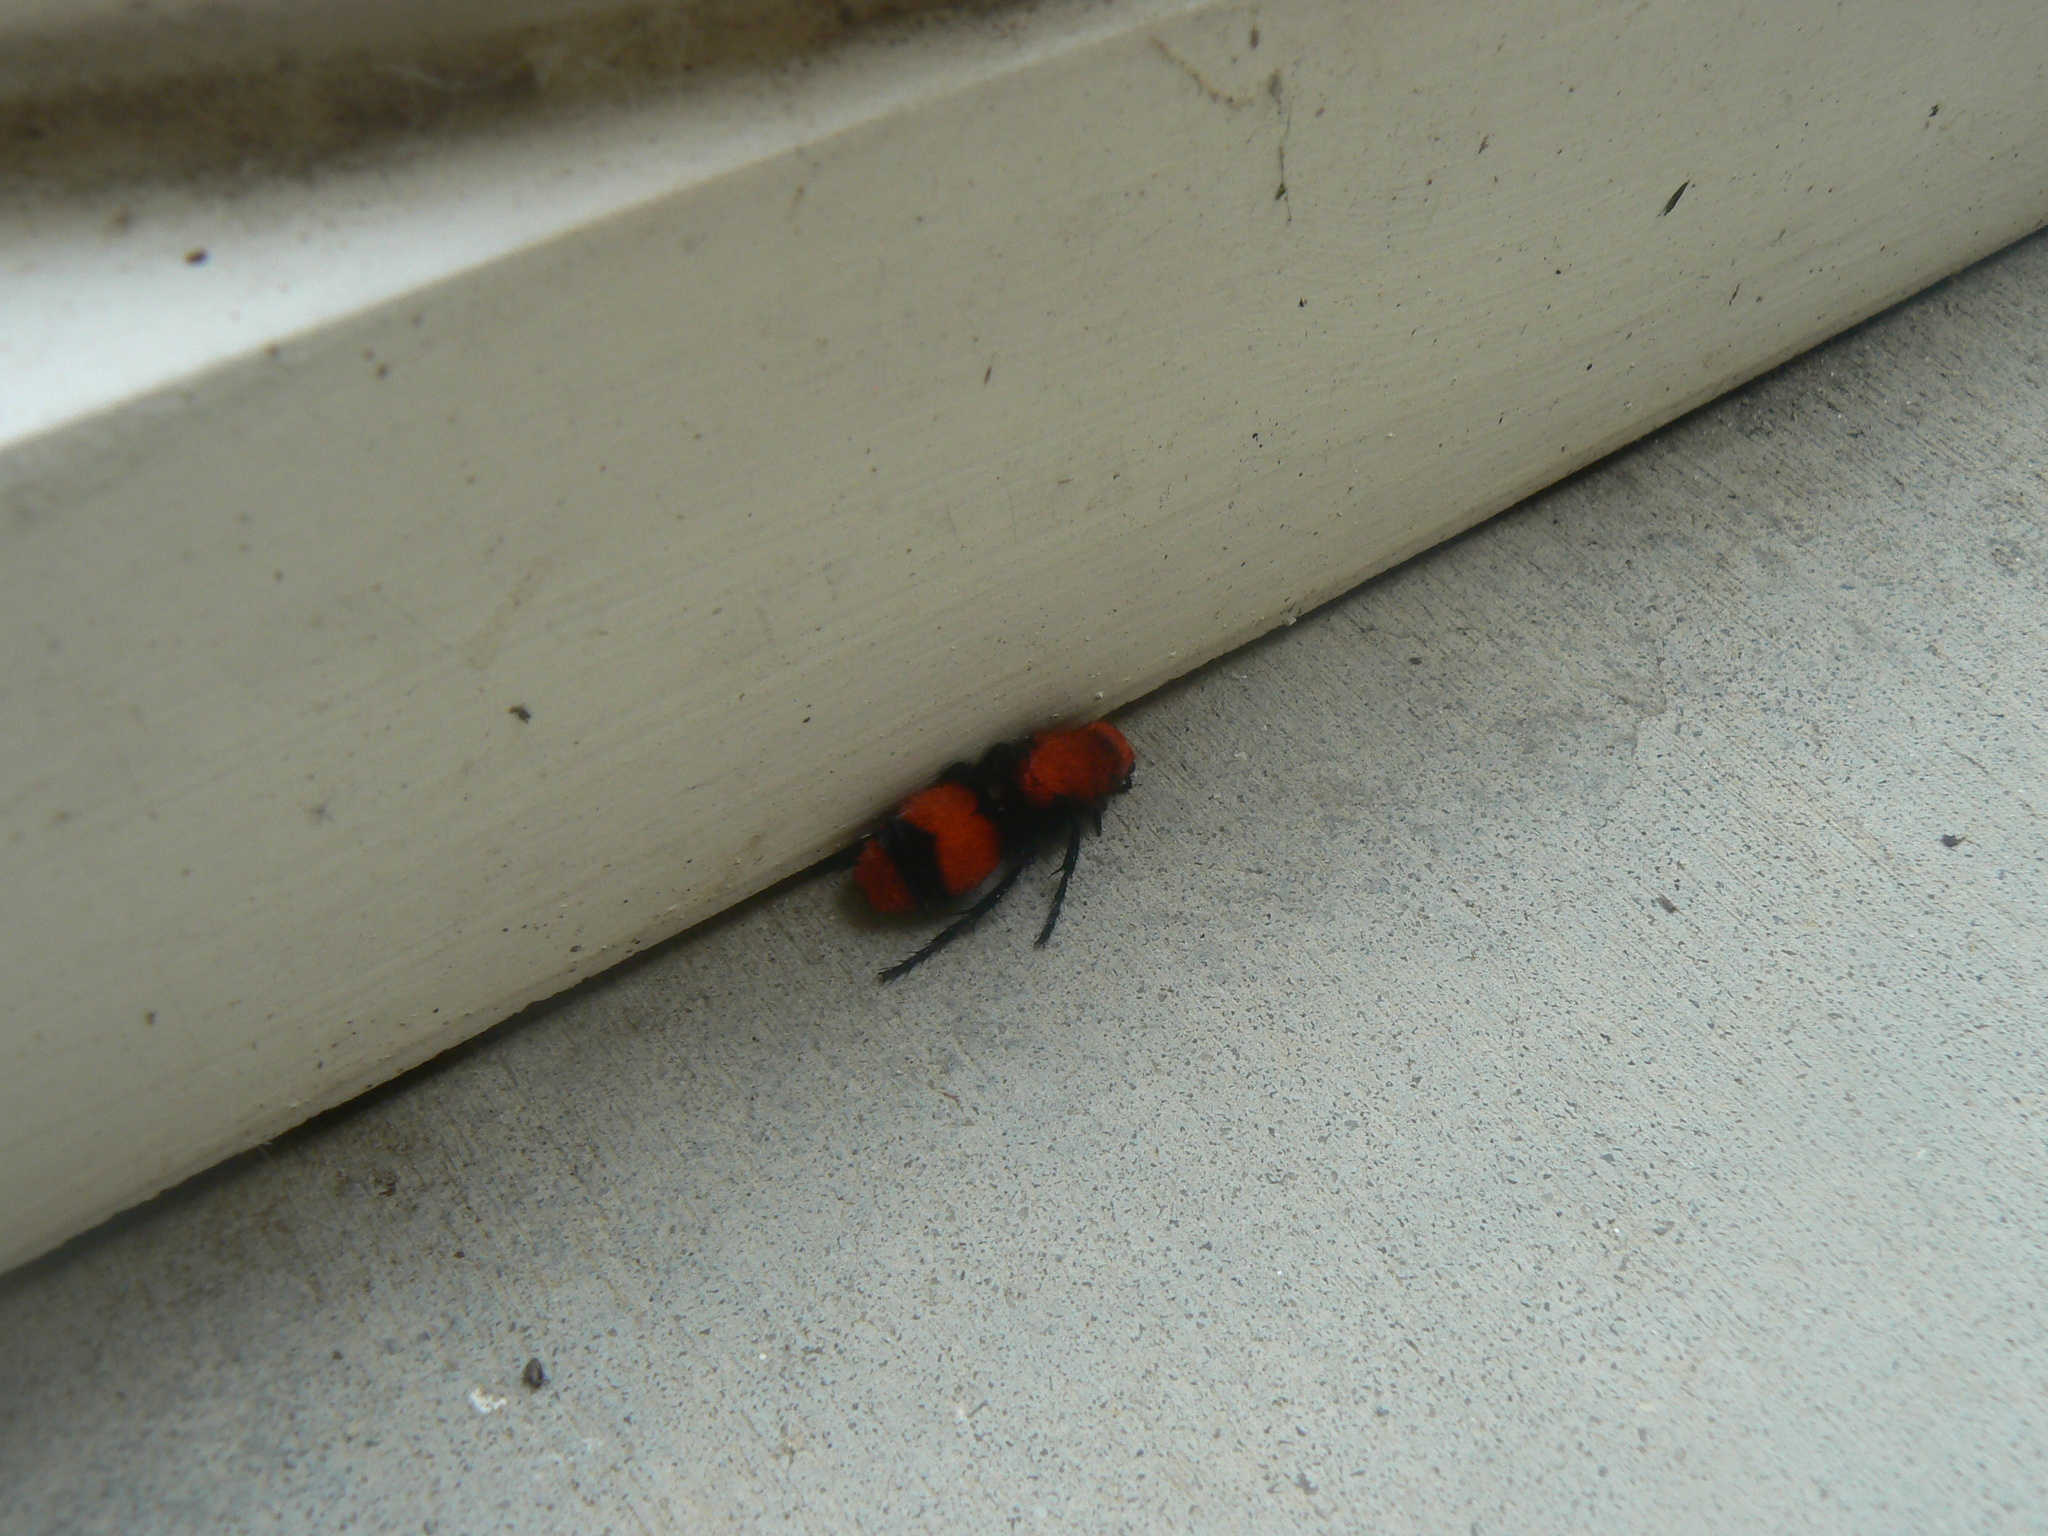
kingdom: Animalia
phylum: Arthropoda
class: Insecta
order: Hymenoptera
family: Mutillidae
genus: Dasymutilla
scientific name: Dasymutilla occidentalis
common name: Common eastern velvet ant
